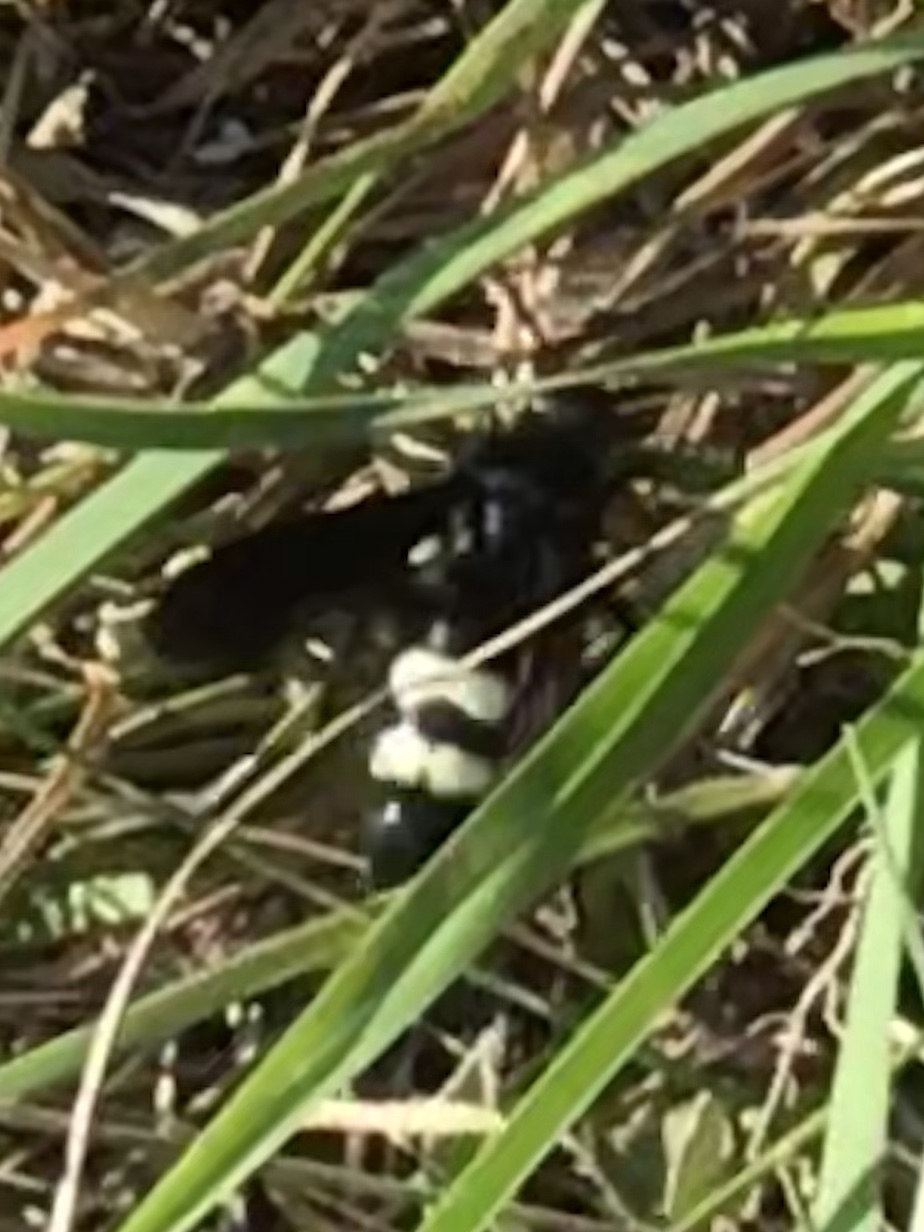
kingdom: Animalia
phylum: Arthropoda
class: Insecta
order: Hymenoptera
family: Scoliidae
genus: Scolia
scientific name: Scolia bicincta
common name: Double-banded scoliid wasp
